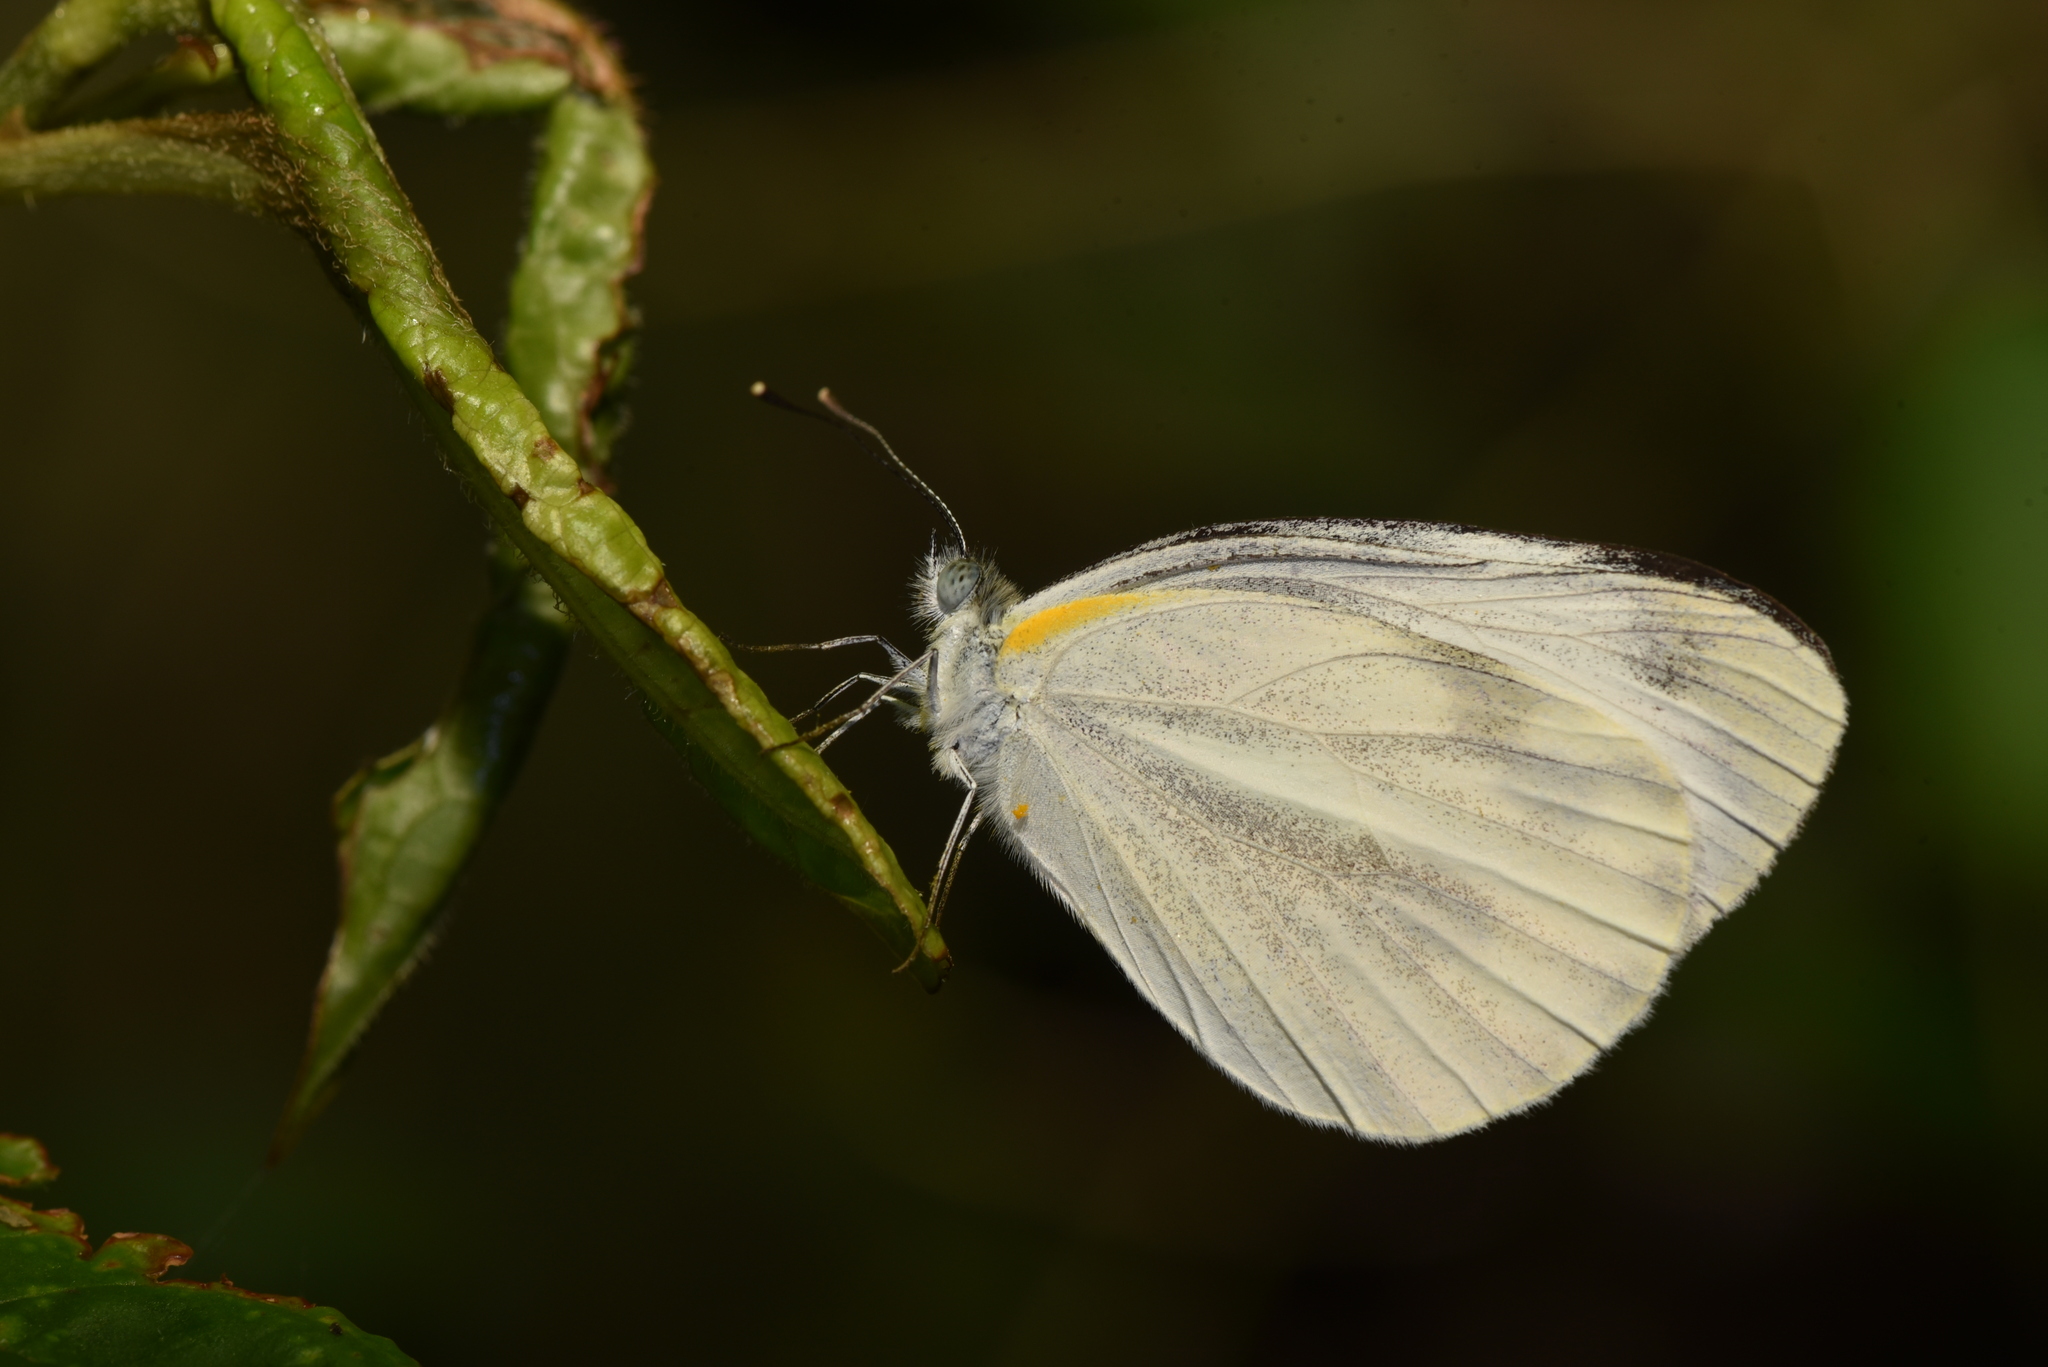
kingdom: Animalia
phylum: Arthropoda
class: Insecta
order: Lepidoptera
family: Pieridae
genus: Pieris
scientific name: Pieris canidia
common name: Indian cabbage white
